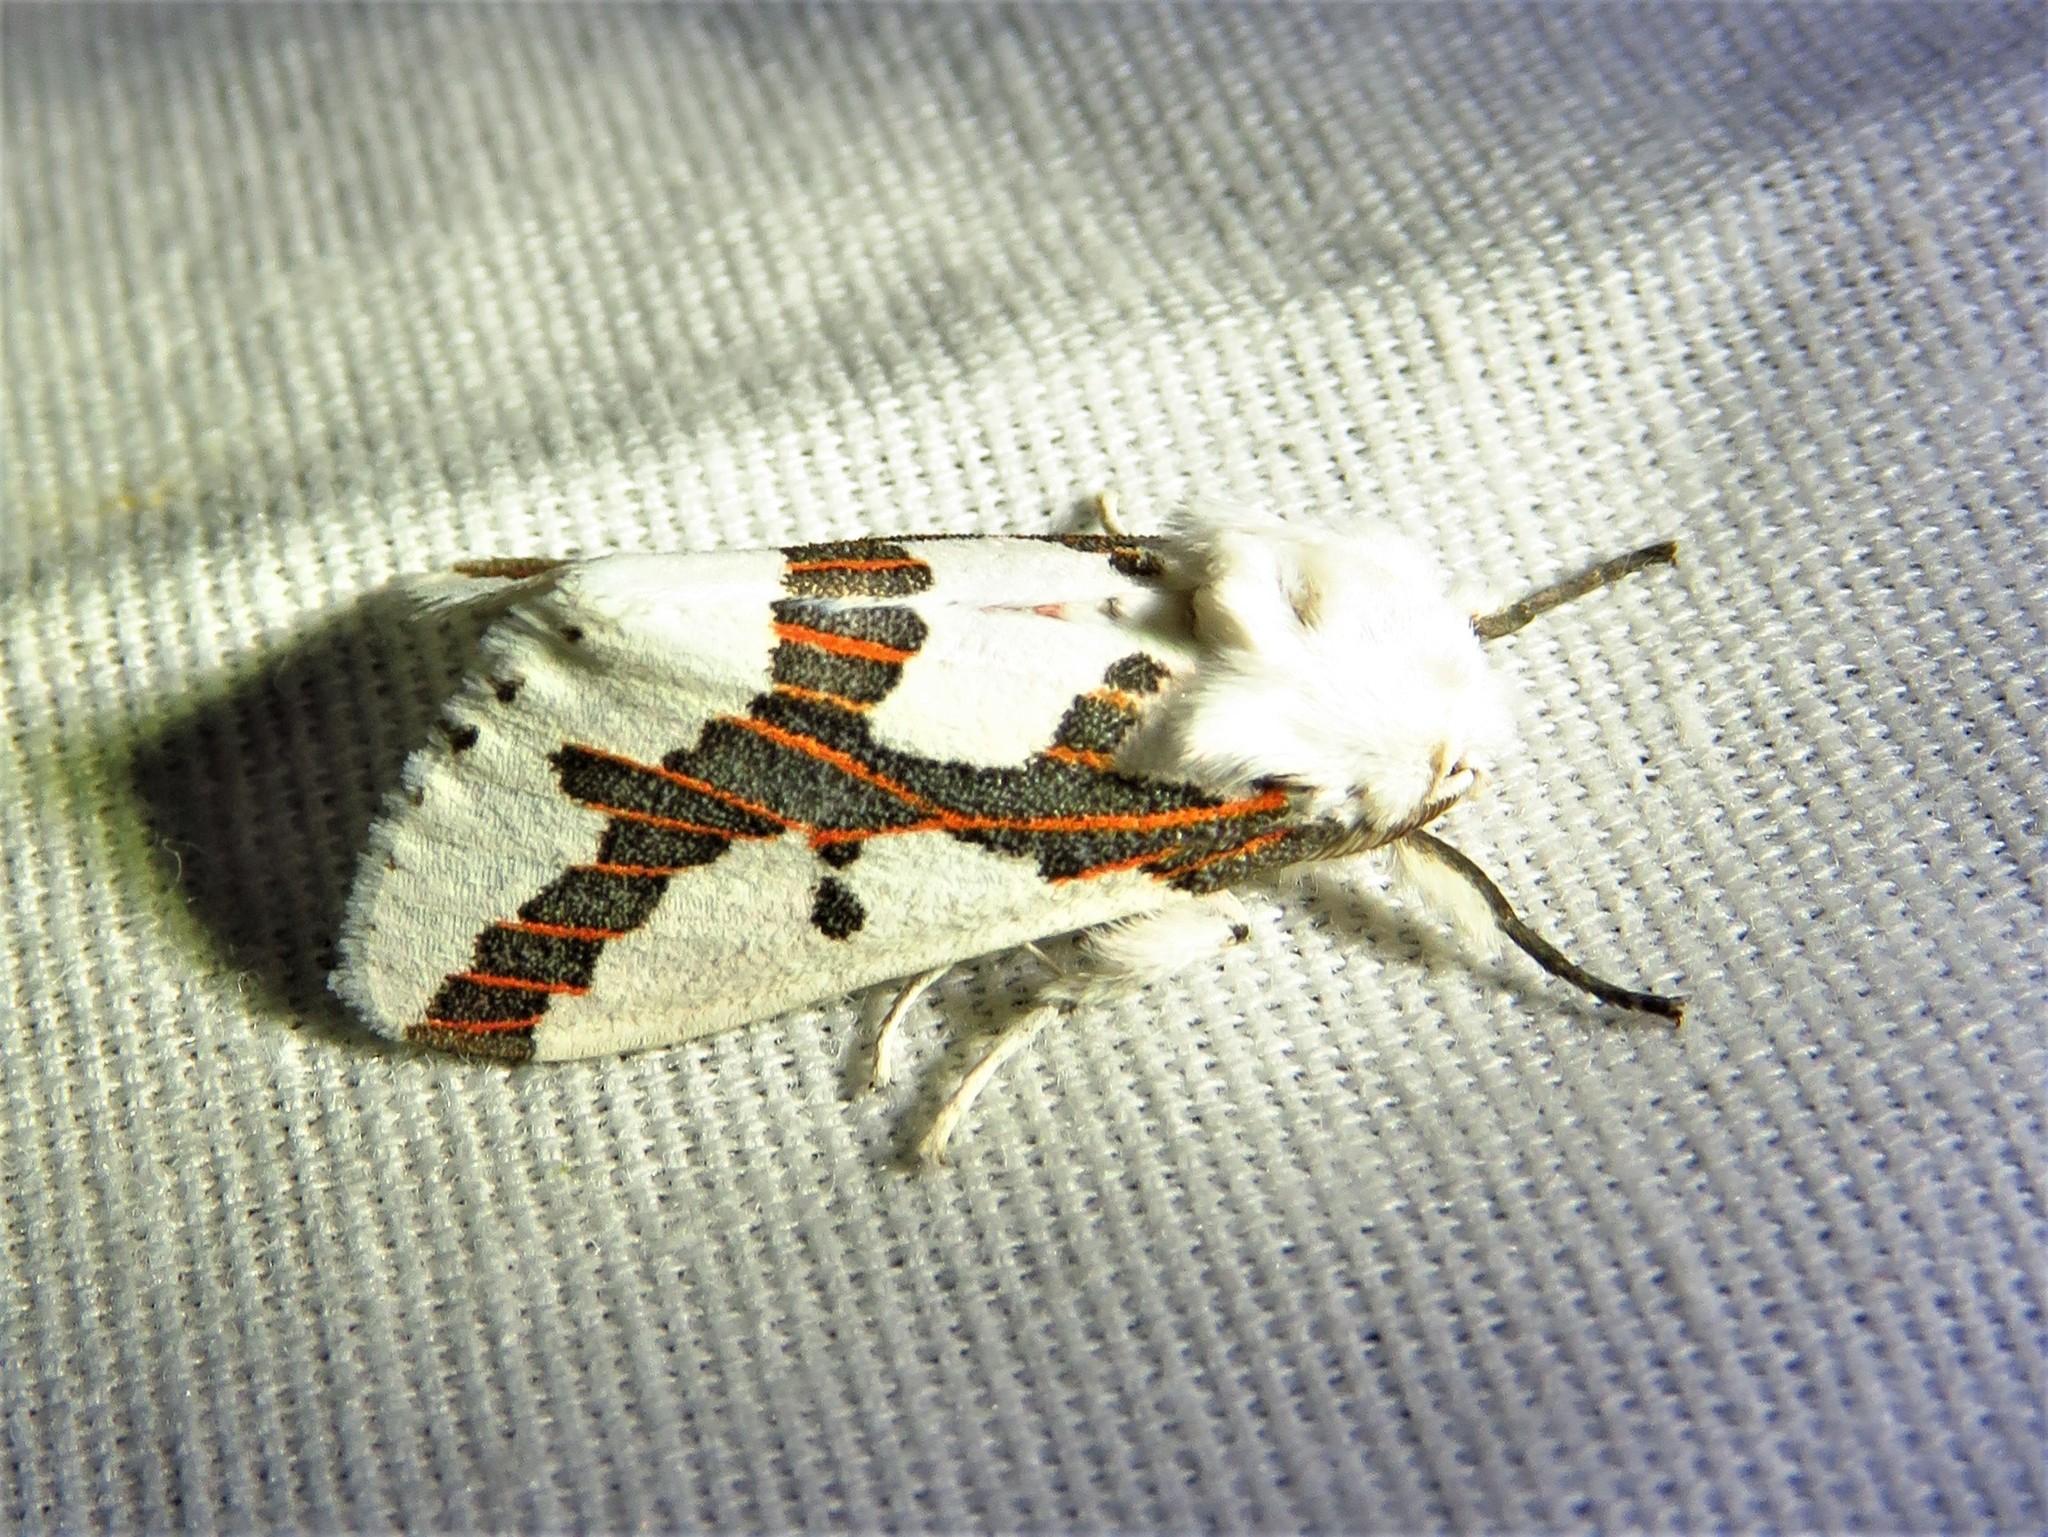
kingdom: Animalia
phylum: Arthropoda
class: Insecta
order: Lepidoptera
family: Erebidae
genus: Euerythra
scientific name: Euerythra phasma
